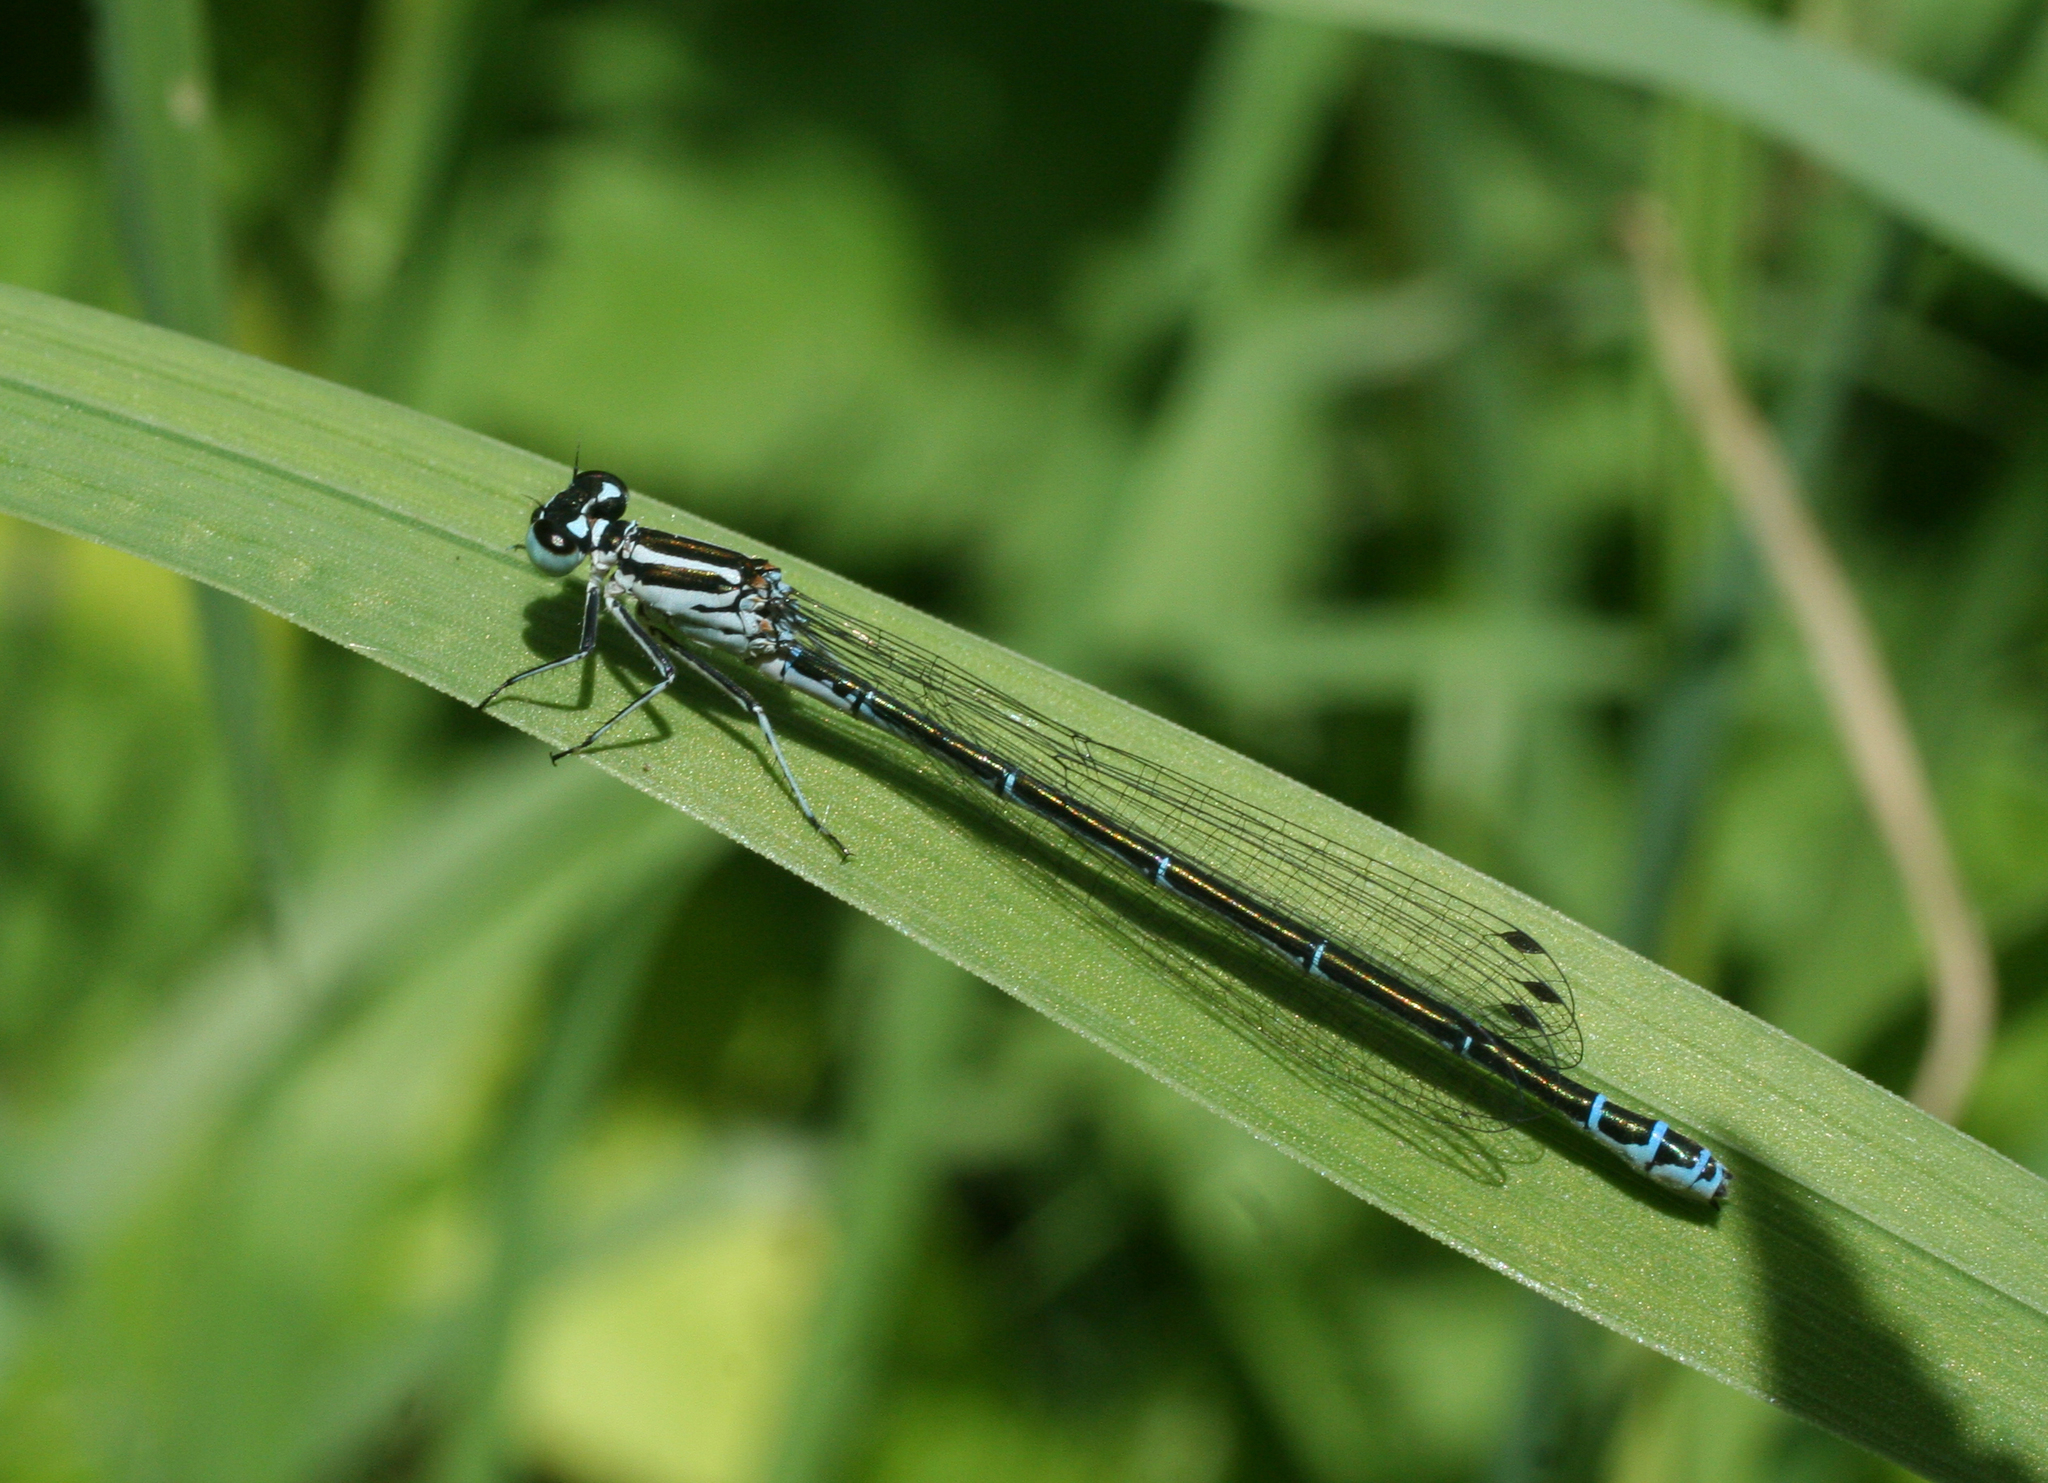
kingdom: Animalia
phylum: Arthropoda
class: Insecta
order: Odonata
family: Coenagrionidae
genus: Coenagrion
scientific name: Coenagrion puella
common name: Azure damselfly
